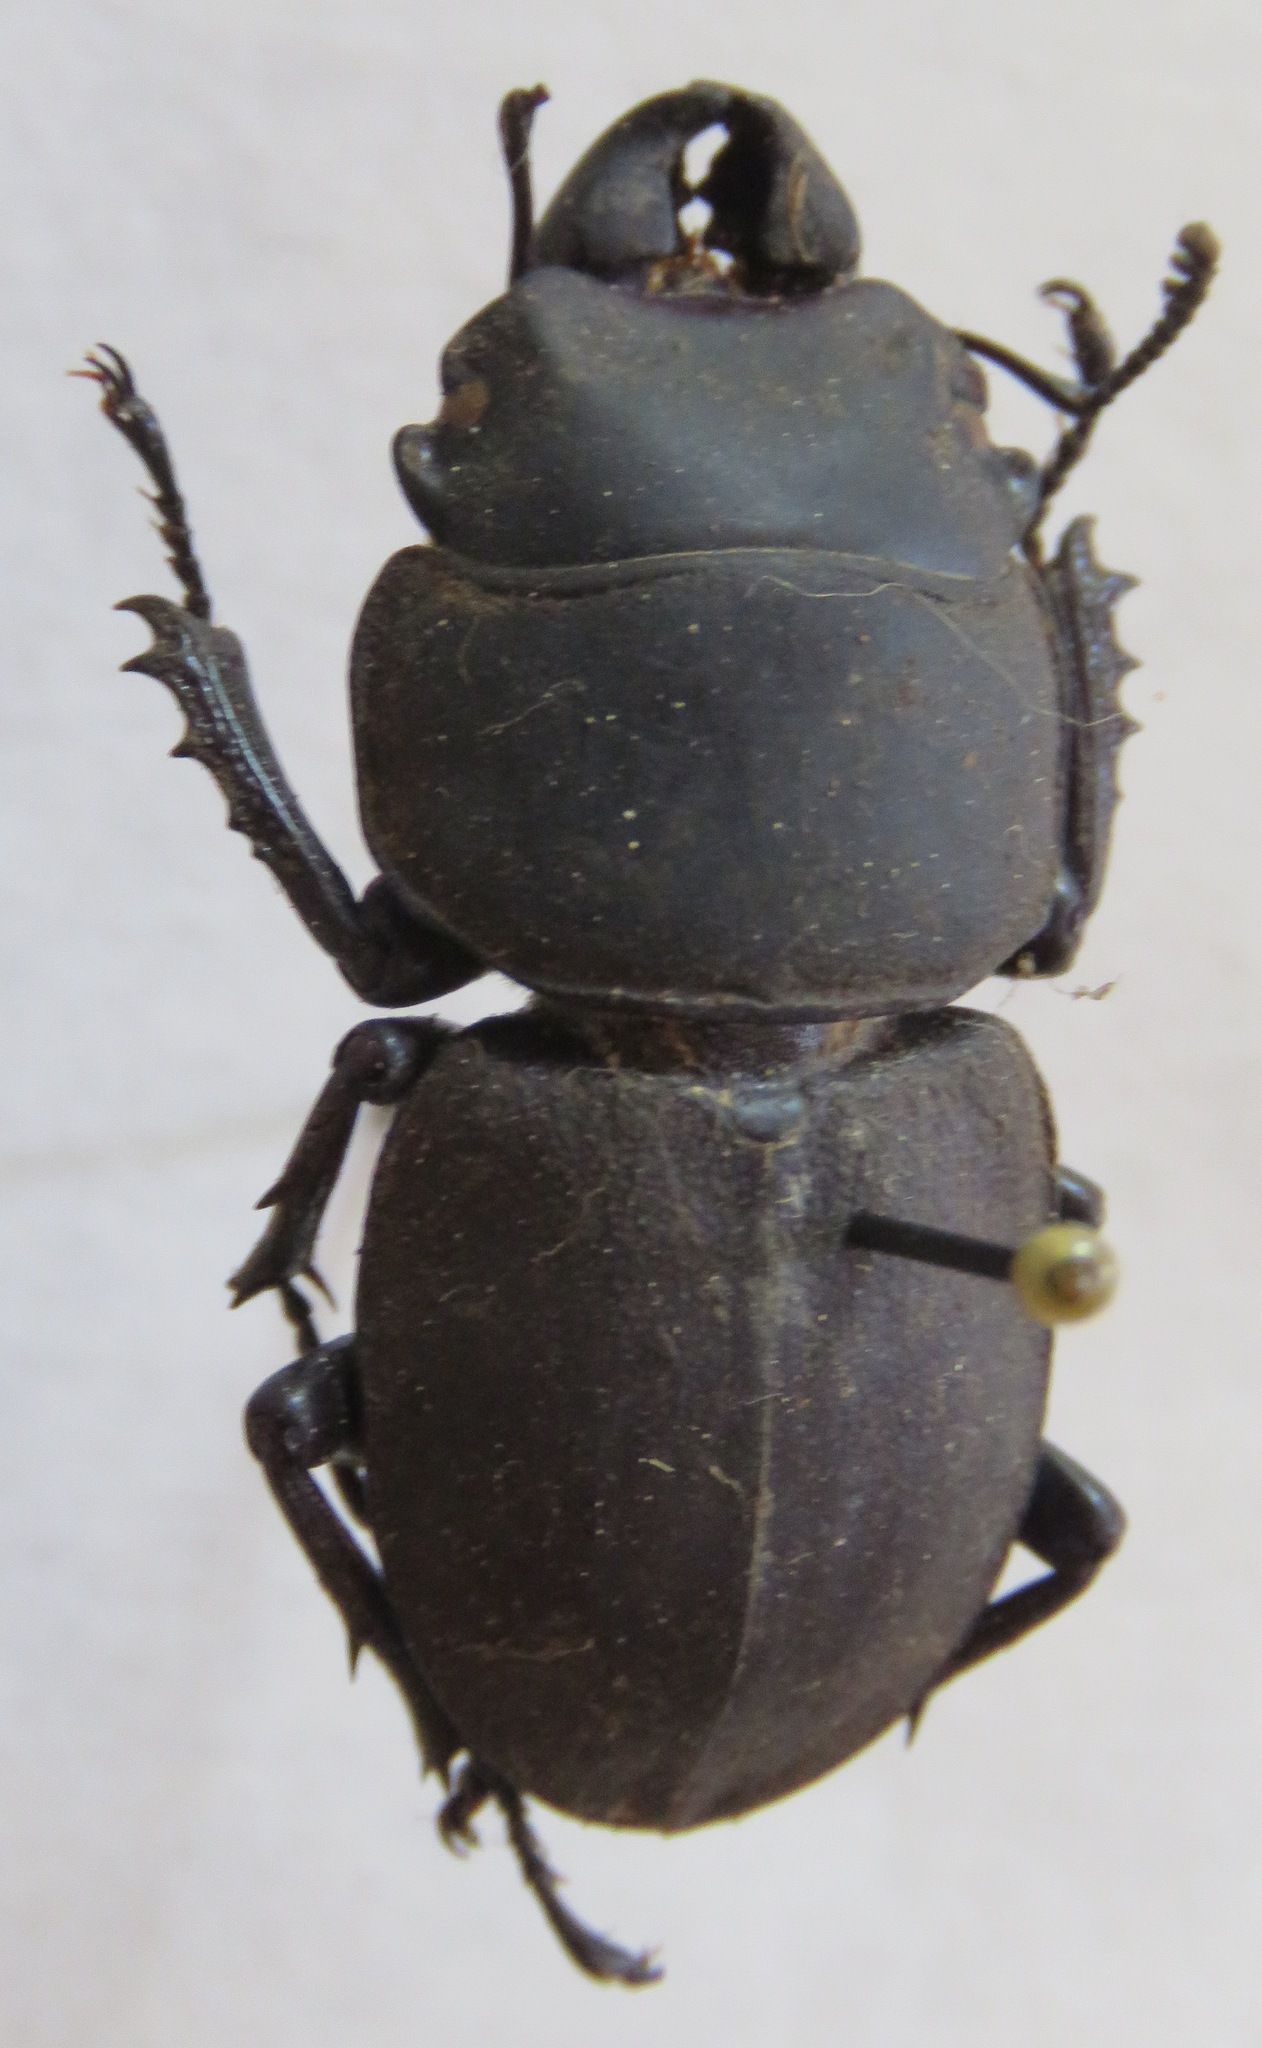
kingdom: Animalia
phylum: Arthropoda
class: Insecta
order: Coleoptera
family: Lucanidae
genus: Apterodorcus
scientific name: Apterodorcus bacchus
